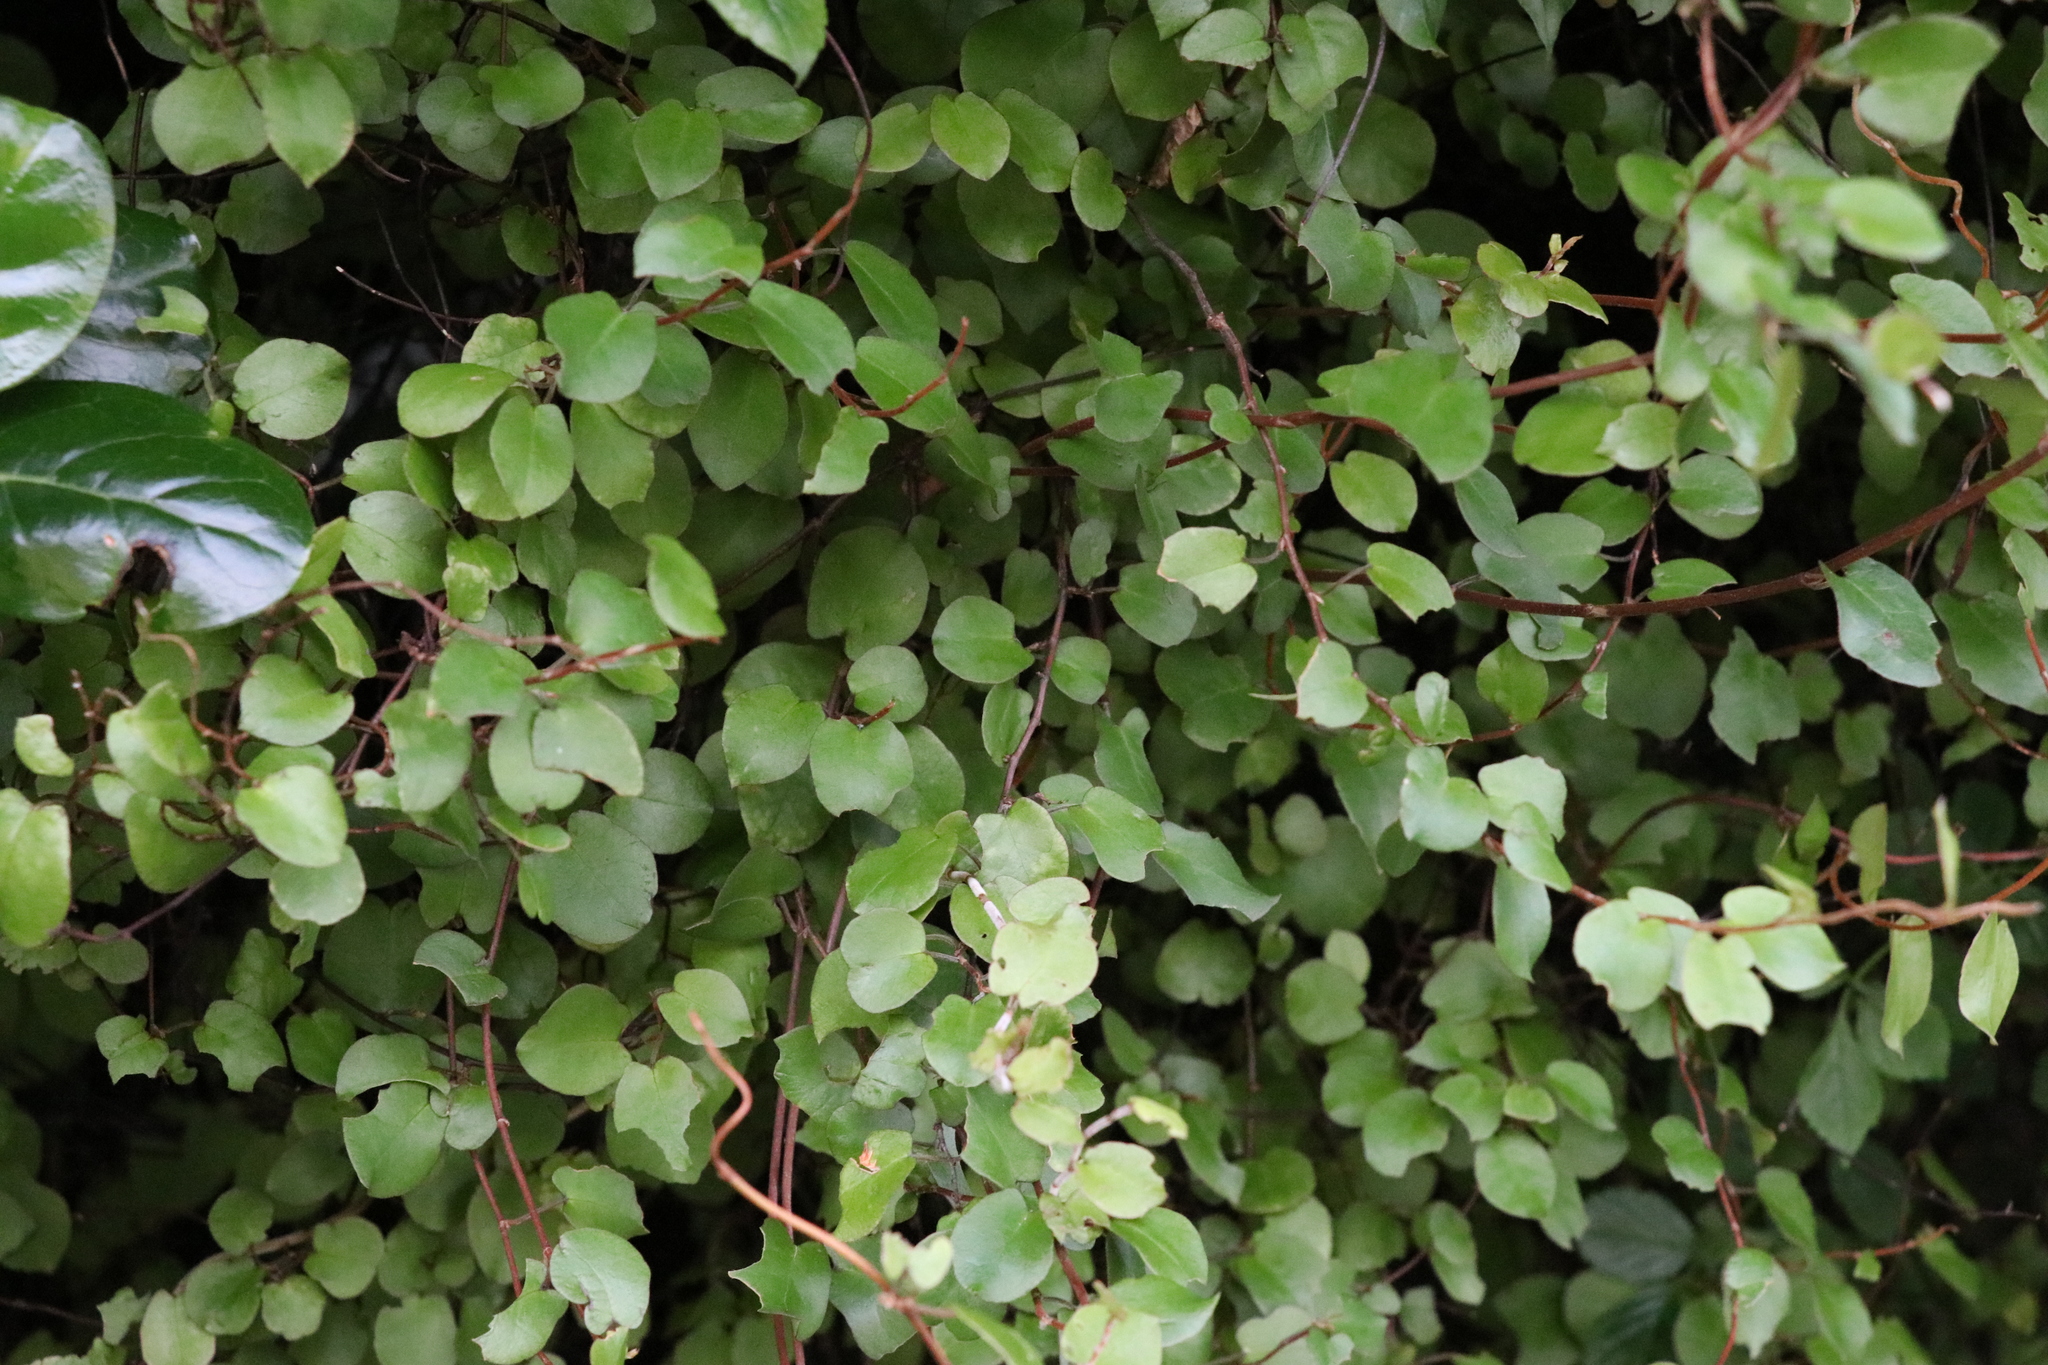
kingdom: Plantae
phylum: Tracheophyta
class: Magnoliopsida
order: Caryophyllales
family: Polygonaceae
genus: Muehlenbeckia
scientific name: Muehlenbeckia complexa
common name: Wireplant
